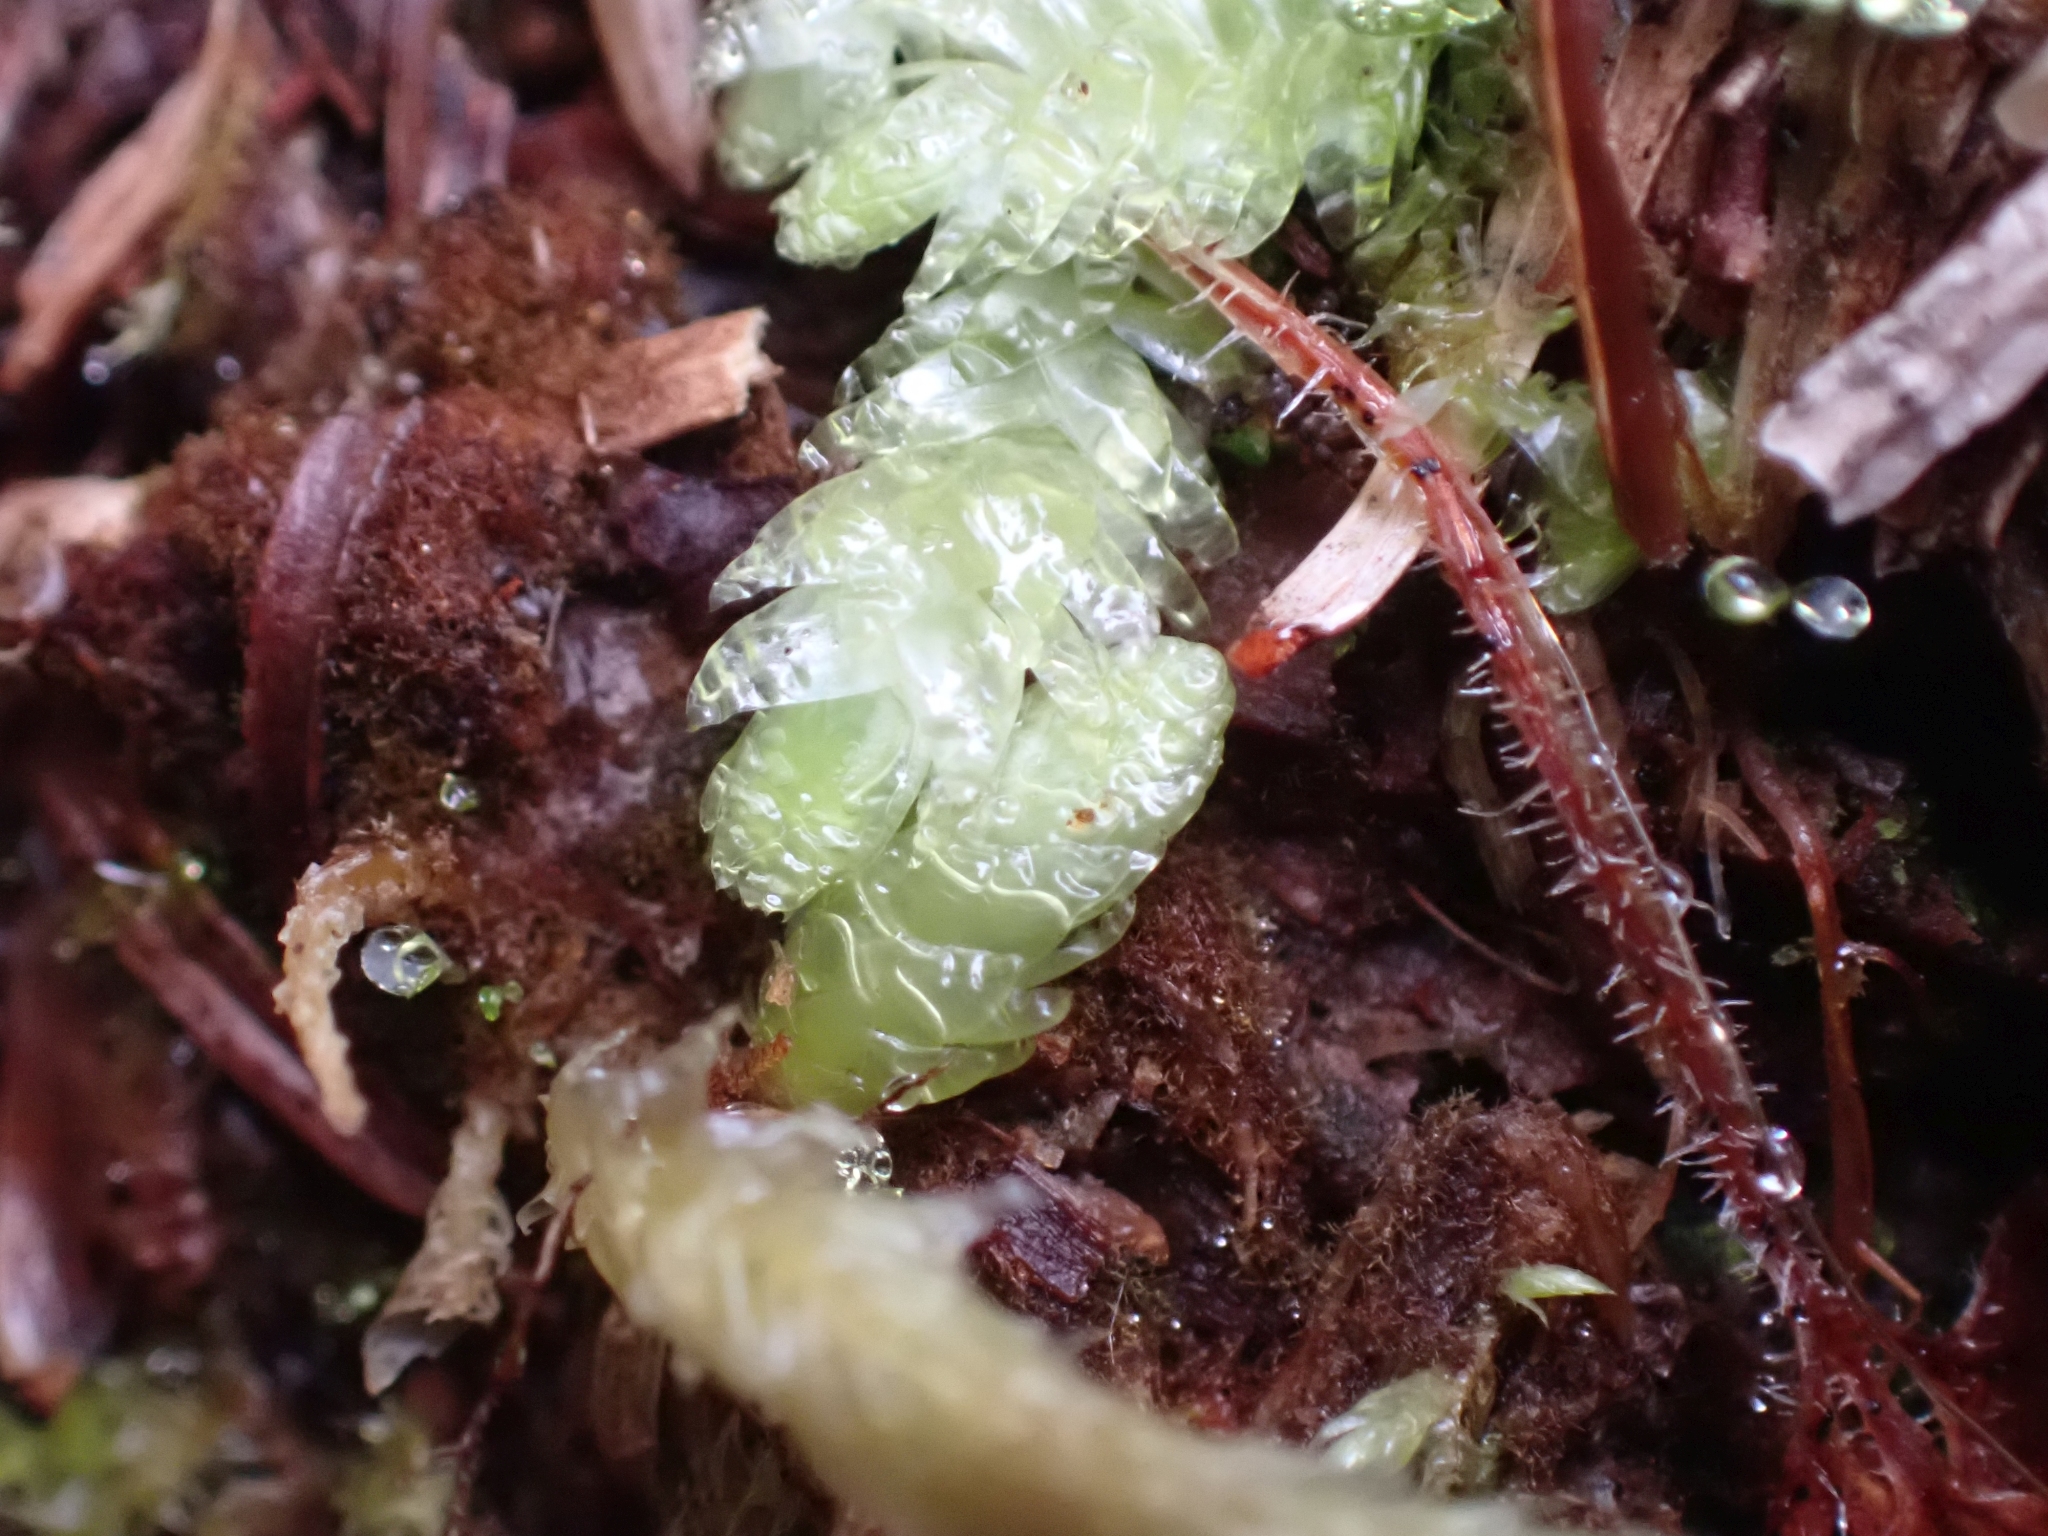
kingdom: Plantae
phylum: Bryophyta
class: Bryopsida
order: Hypnales
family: Plagiotheciaceae
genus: Plagiothecium
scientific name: Plagiothecium undulatum
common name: Waved silk-moss
